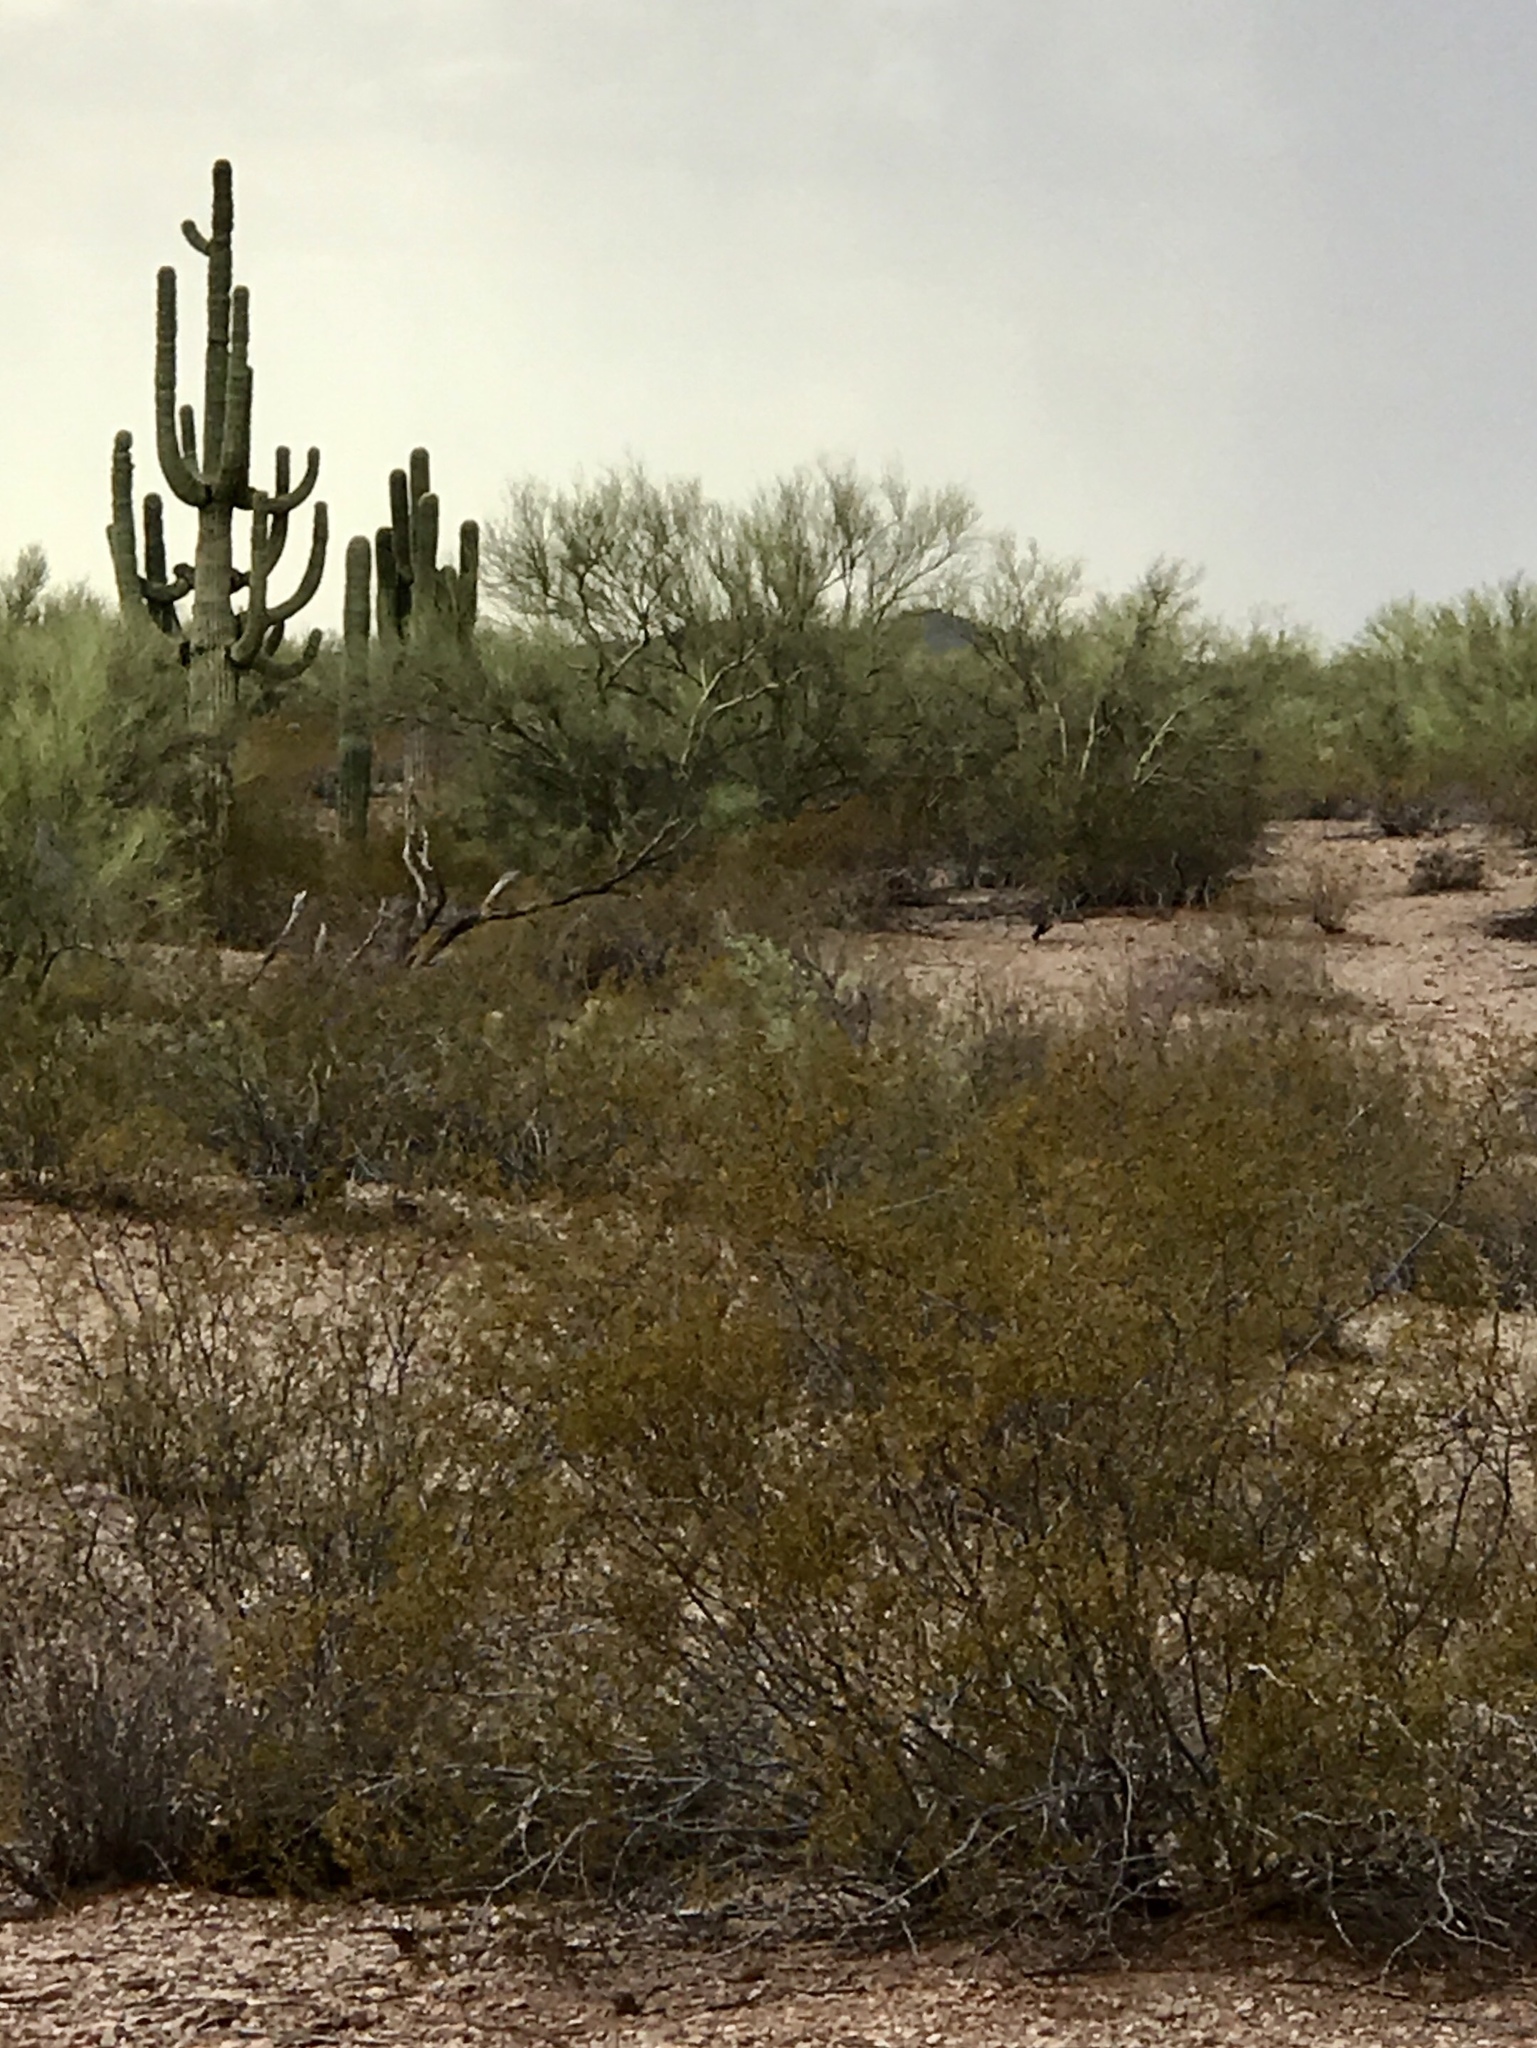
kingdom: Plantae
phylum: Tracheophyta
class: Magnoliopsida
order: Zygophyllales
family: Zygophyllaceae
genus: Larrea
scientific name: Larrea tridentata
